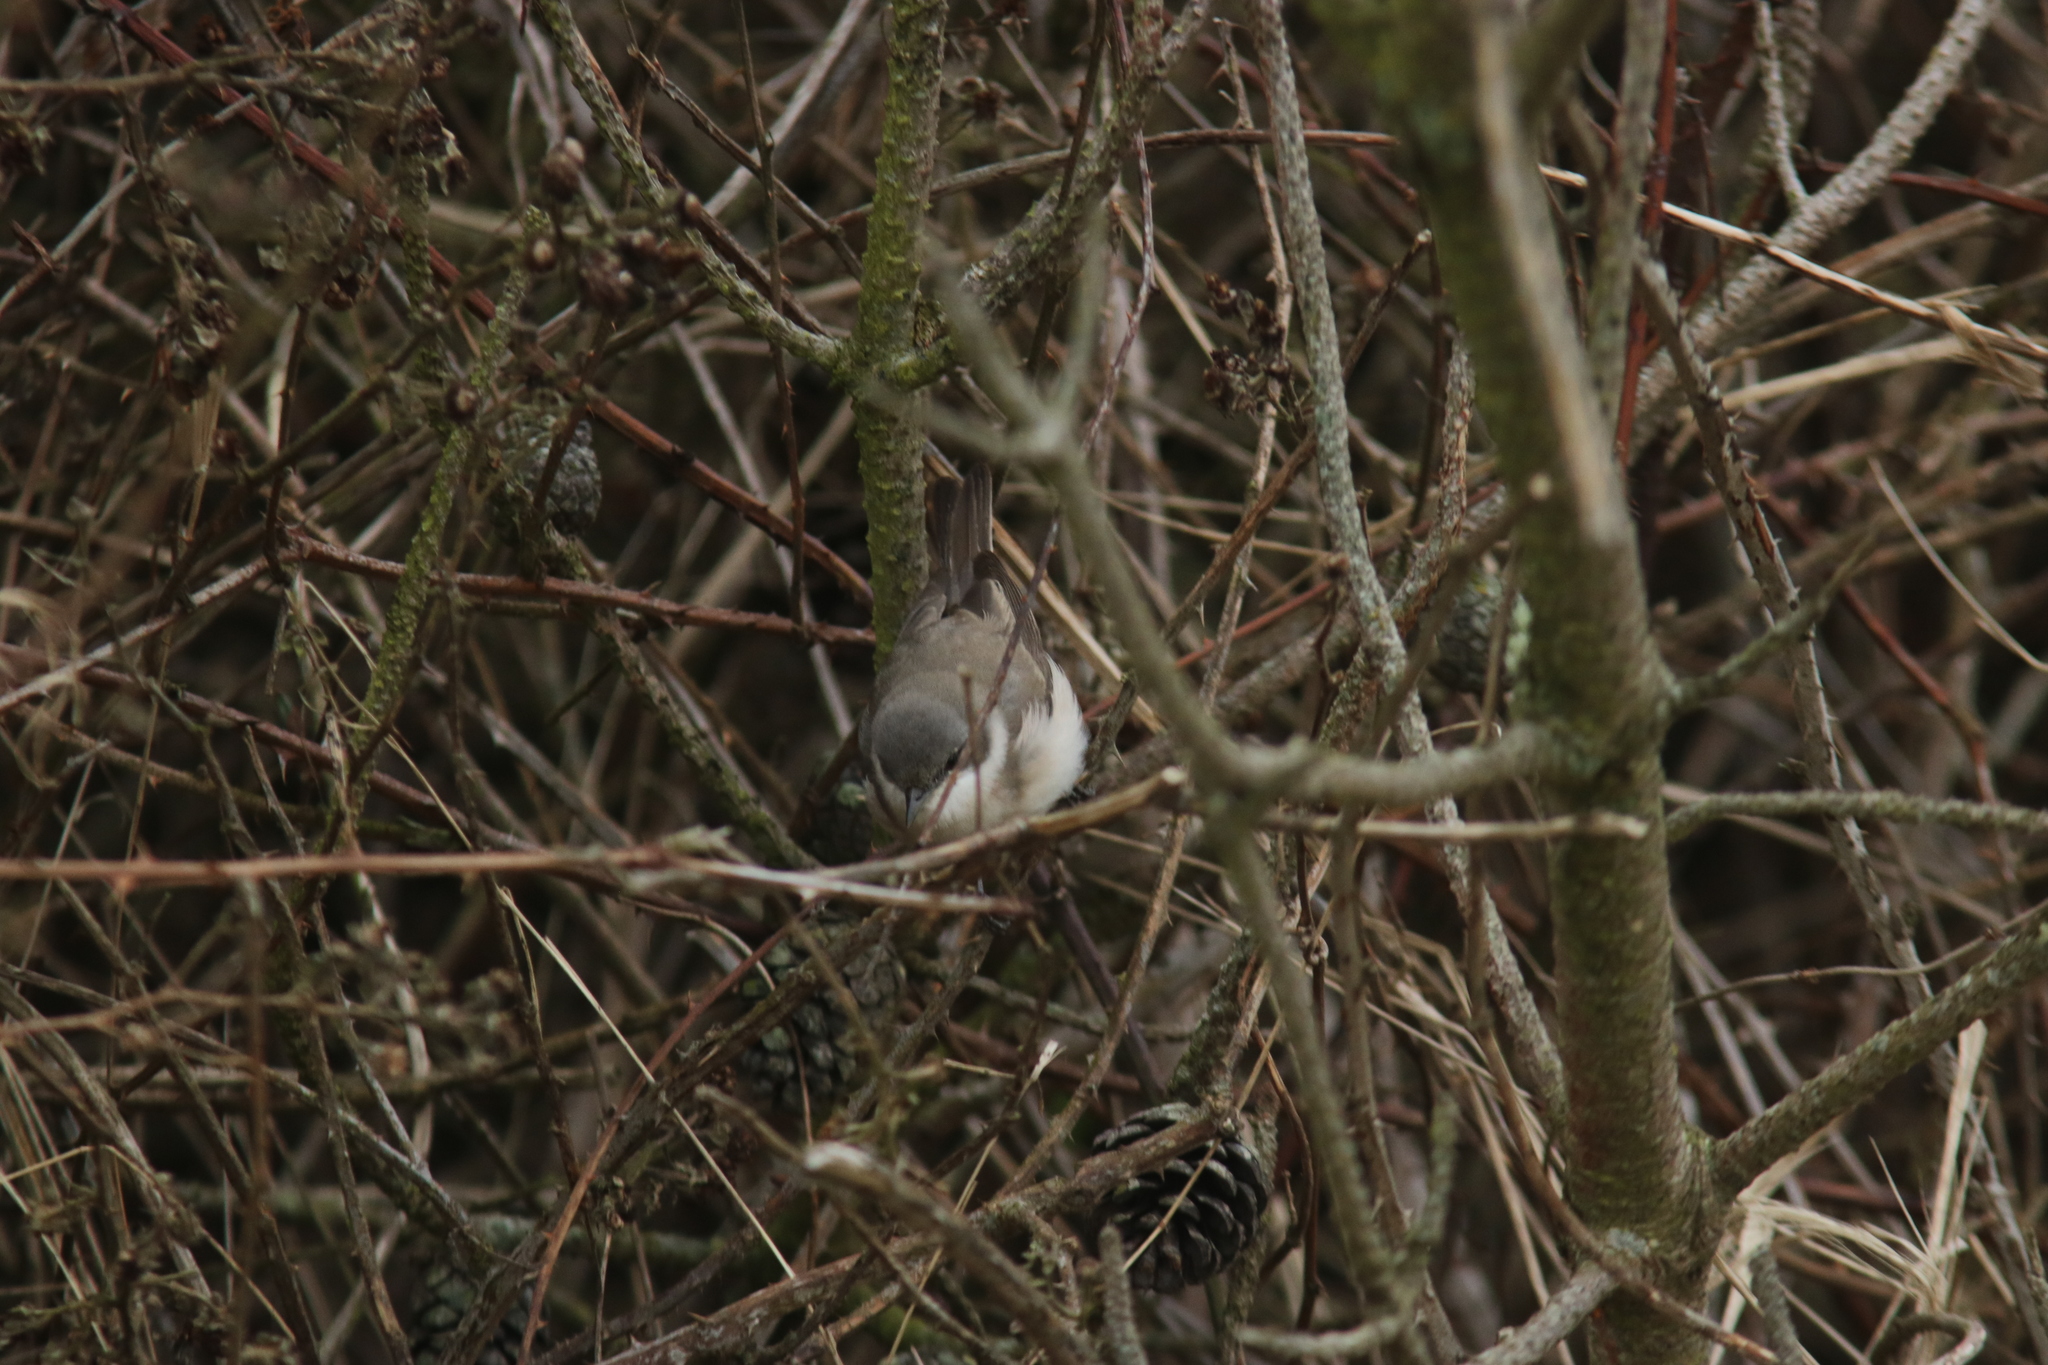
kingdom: Animalia
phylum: Chordata
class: Aves
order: Passeriformes
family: Sylviidae
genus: Sylvia
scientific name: Sylvia curruca
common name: Lesser whitethroat
